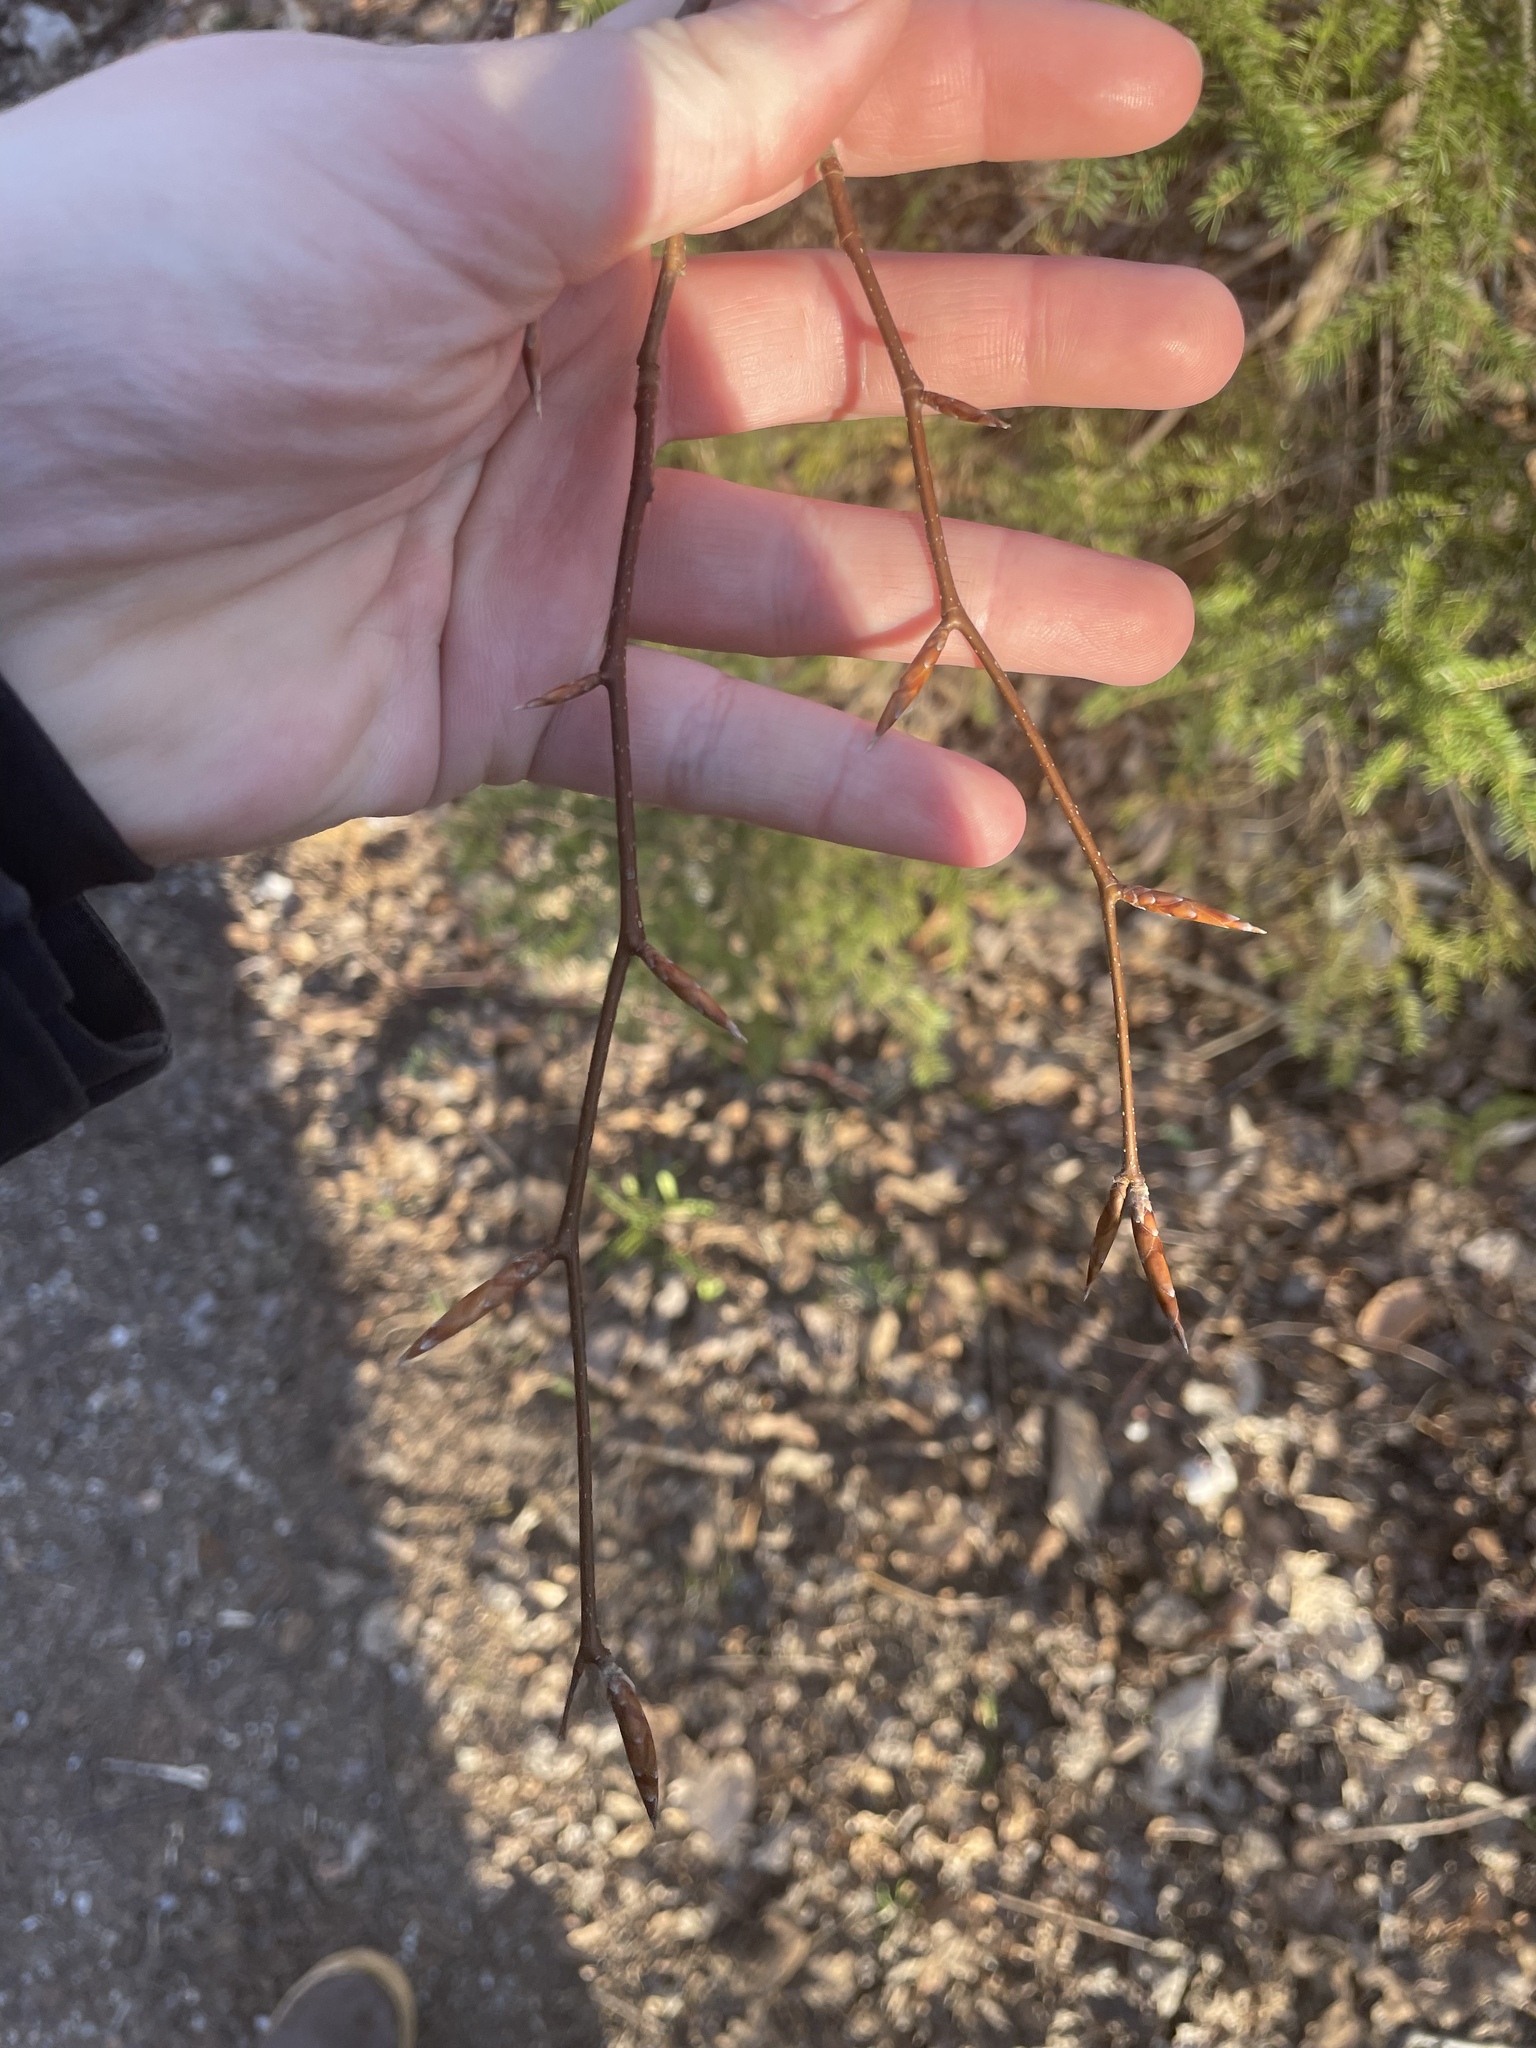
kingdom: Plantae
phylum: Tracheophyta
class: Magnoliopsida
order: Fagales
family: Fagaceae
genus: Fagus
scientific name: Fagus grandifolia
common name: American beech
